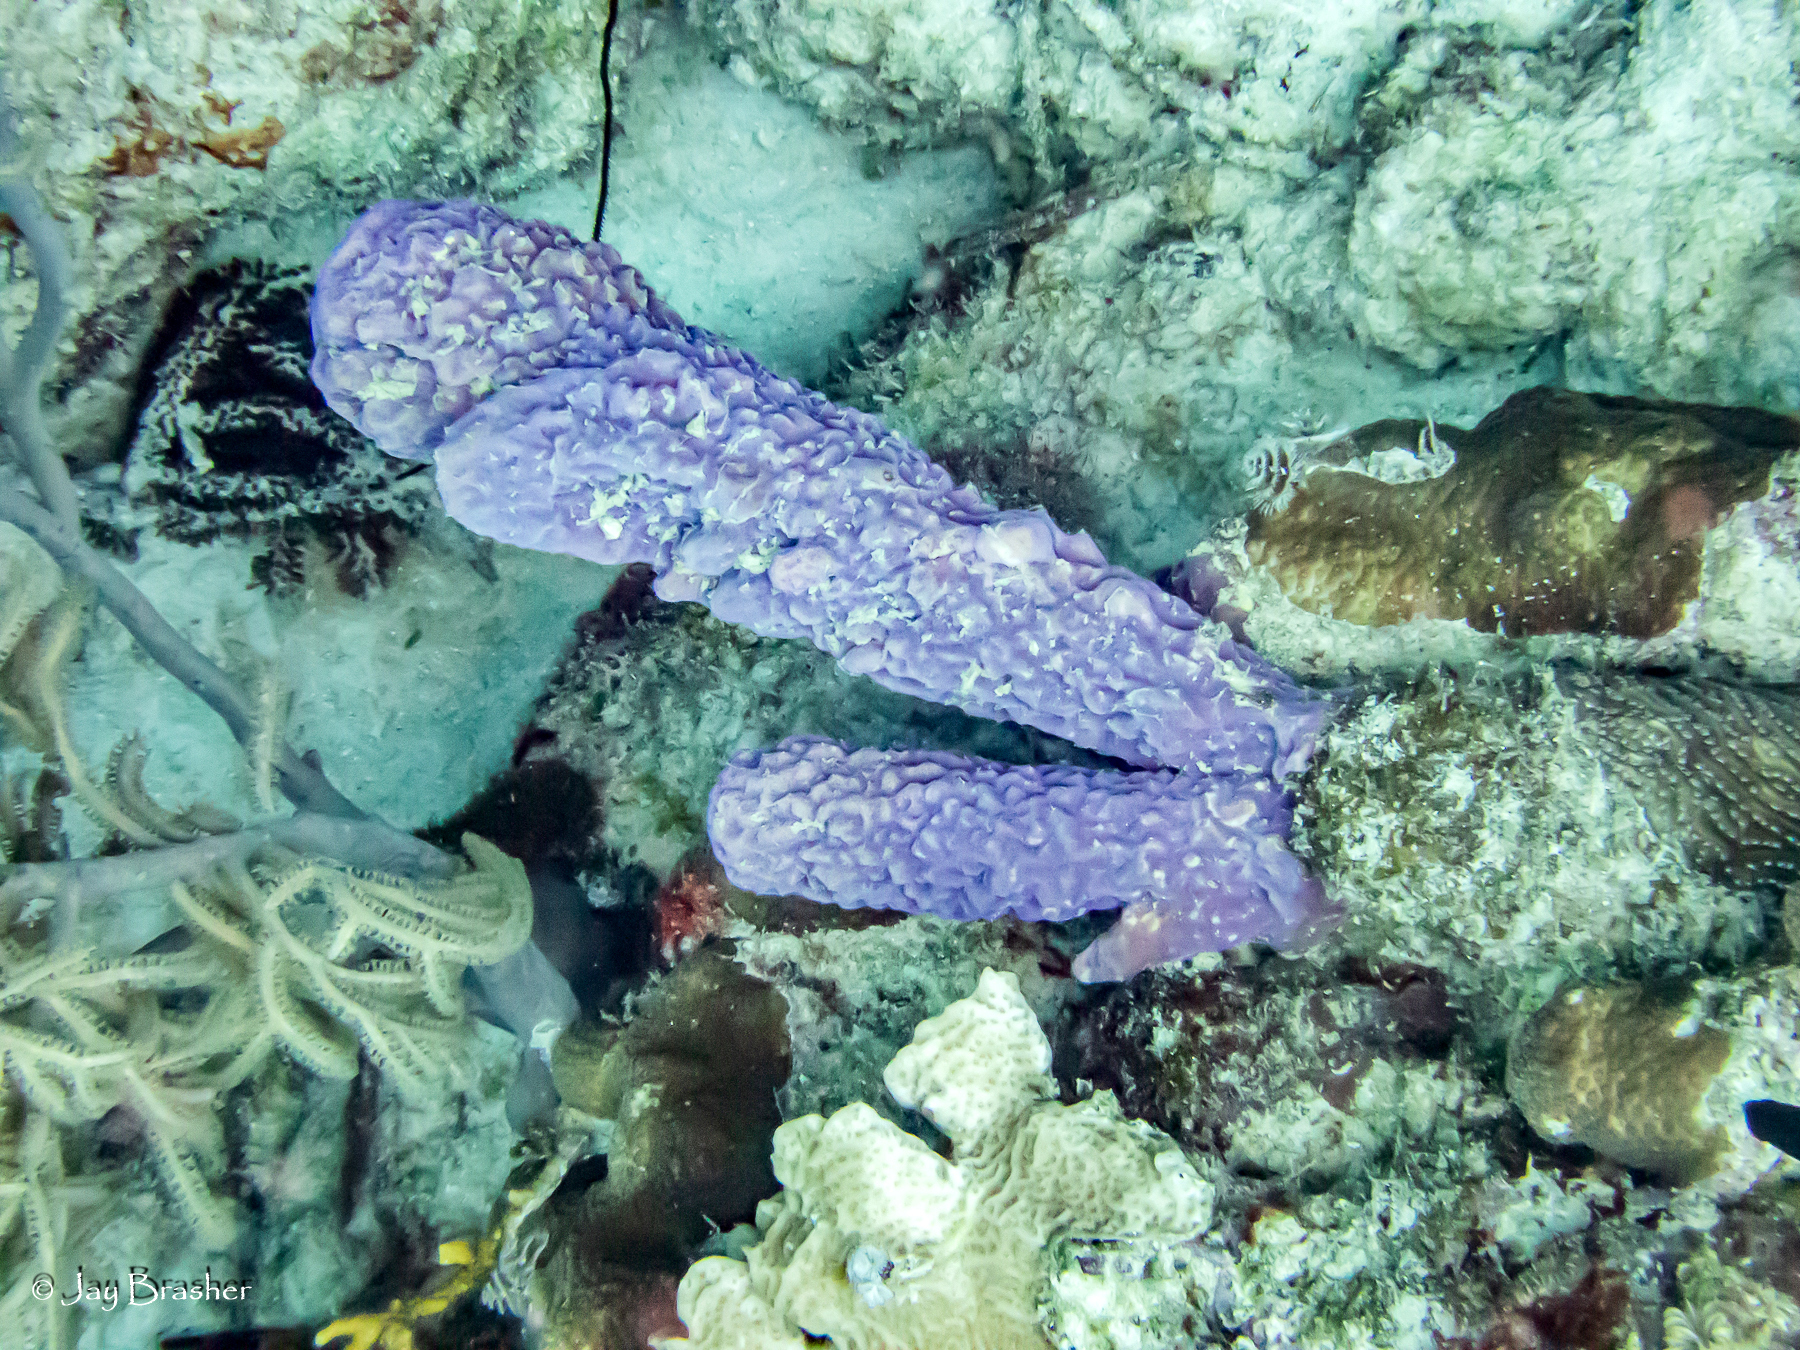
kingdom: Animalia
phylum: Porifera
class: Demospongiae
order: Verongiida
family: Aplysinidae
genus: Aplysina
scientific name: Aplysina archeri
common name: Stove-pipe sponge
